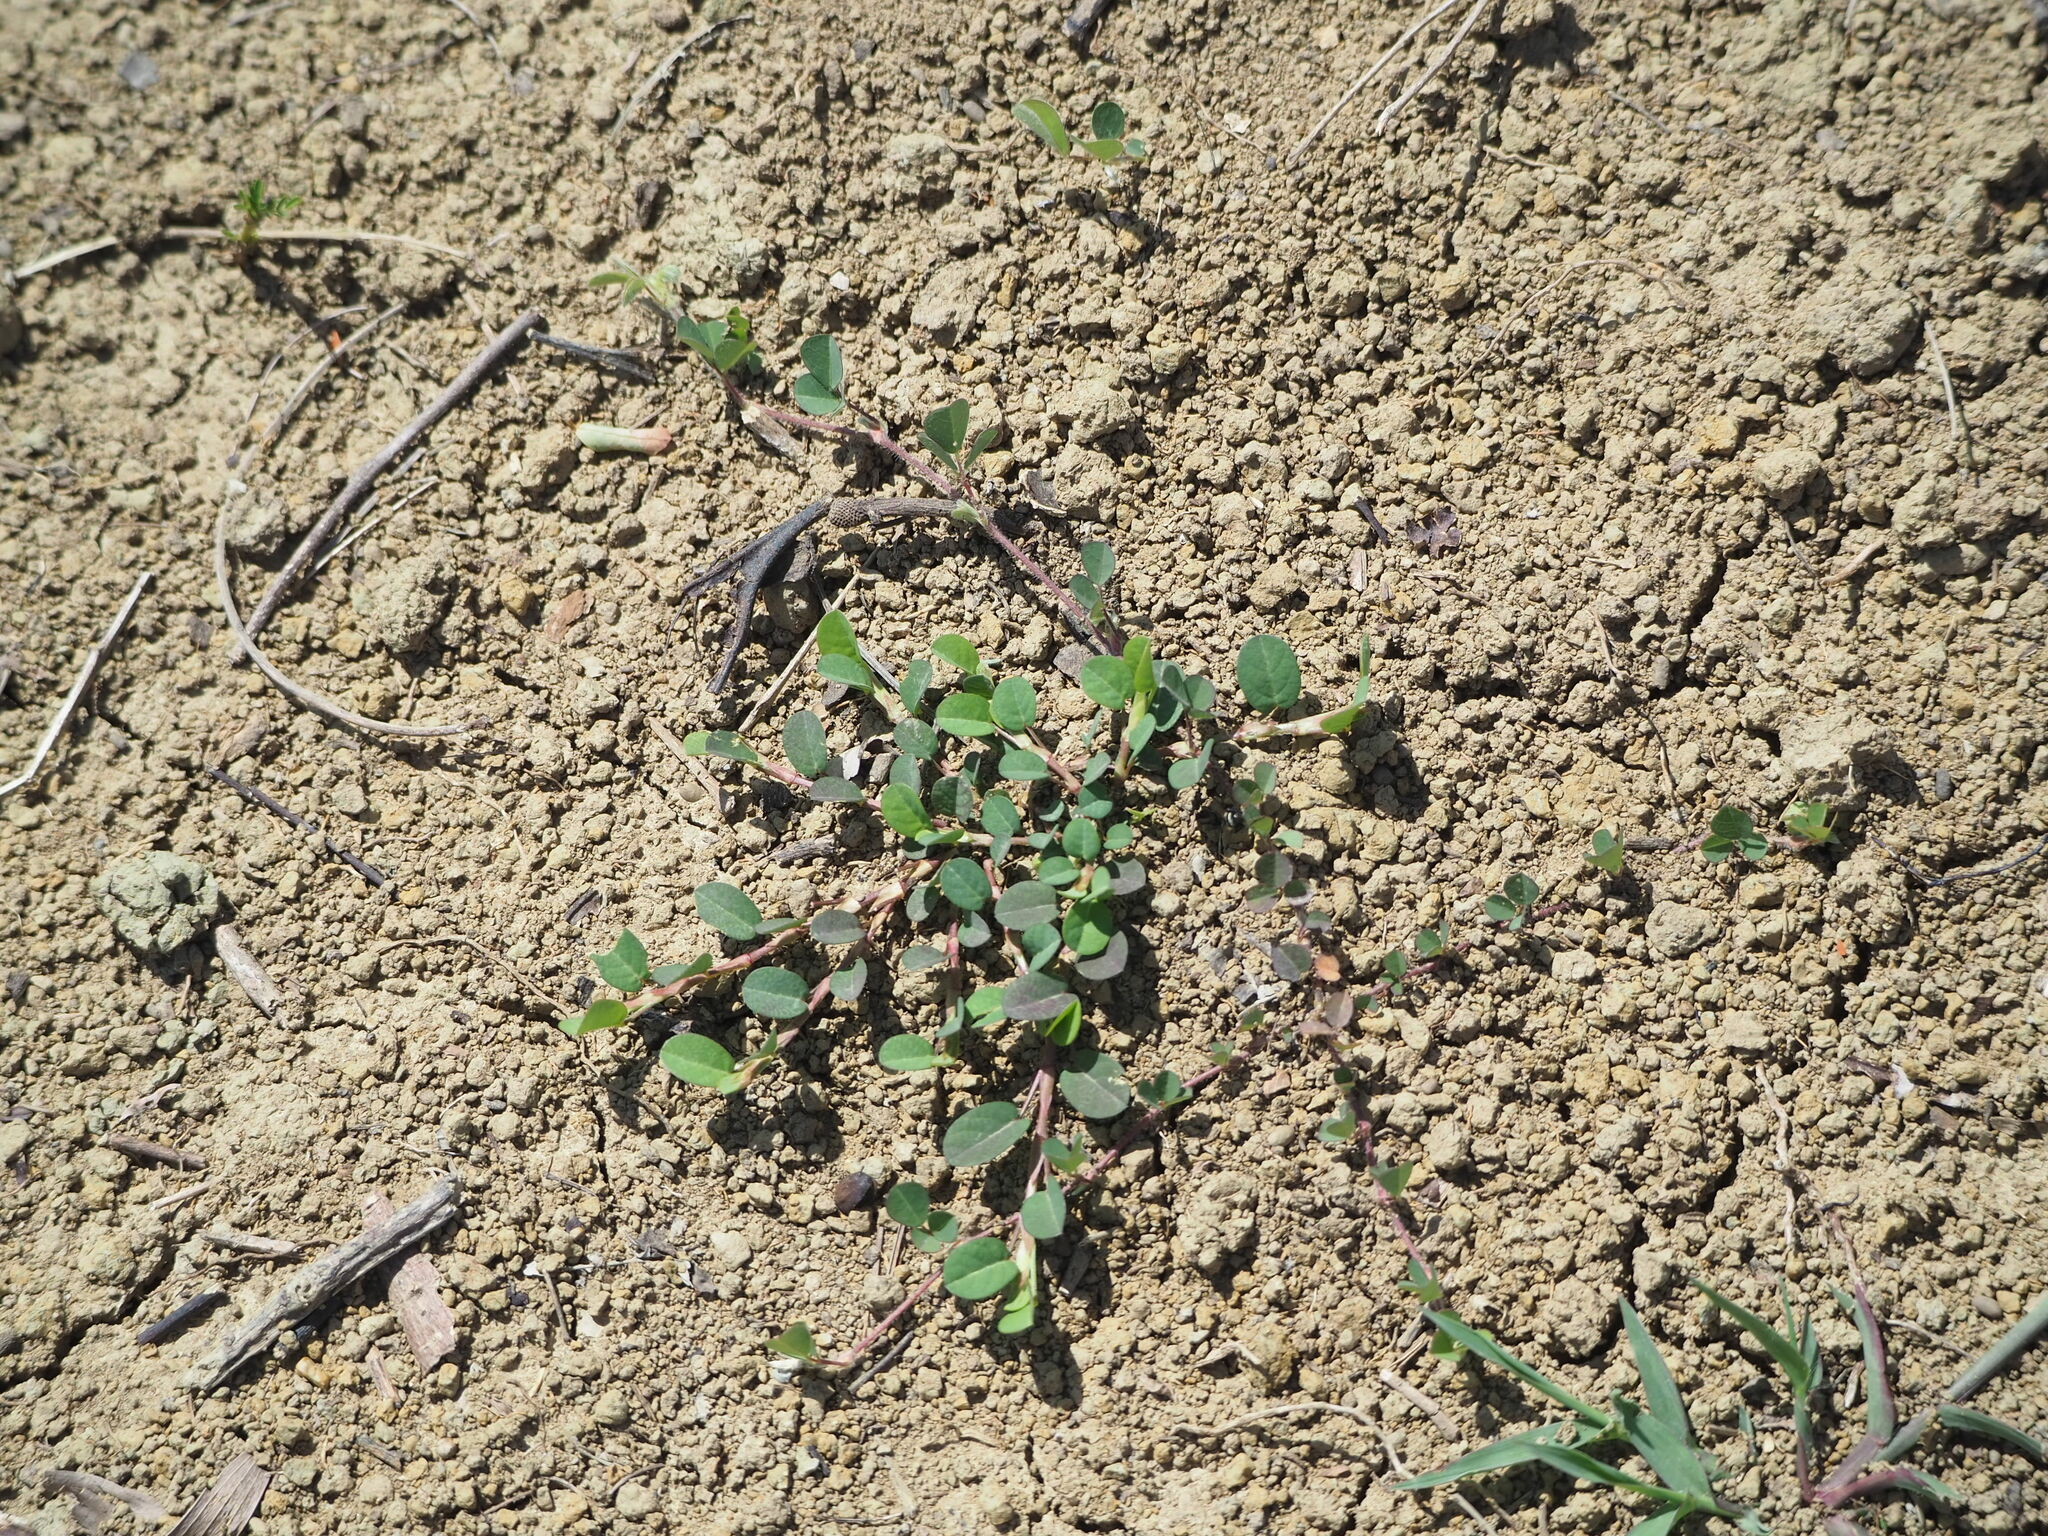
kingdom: Plantae
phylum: Tracheophyta
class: Magnoliopsida
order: Fabales
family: Fabaceae
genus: Alysicarpus
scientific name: Alysicarpus vaginalis
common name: White moneywort
